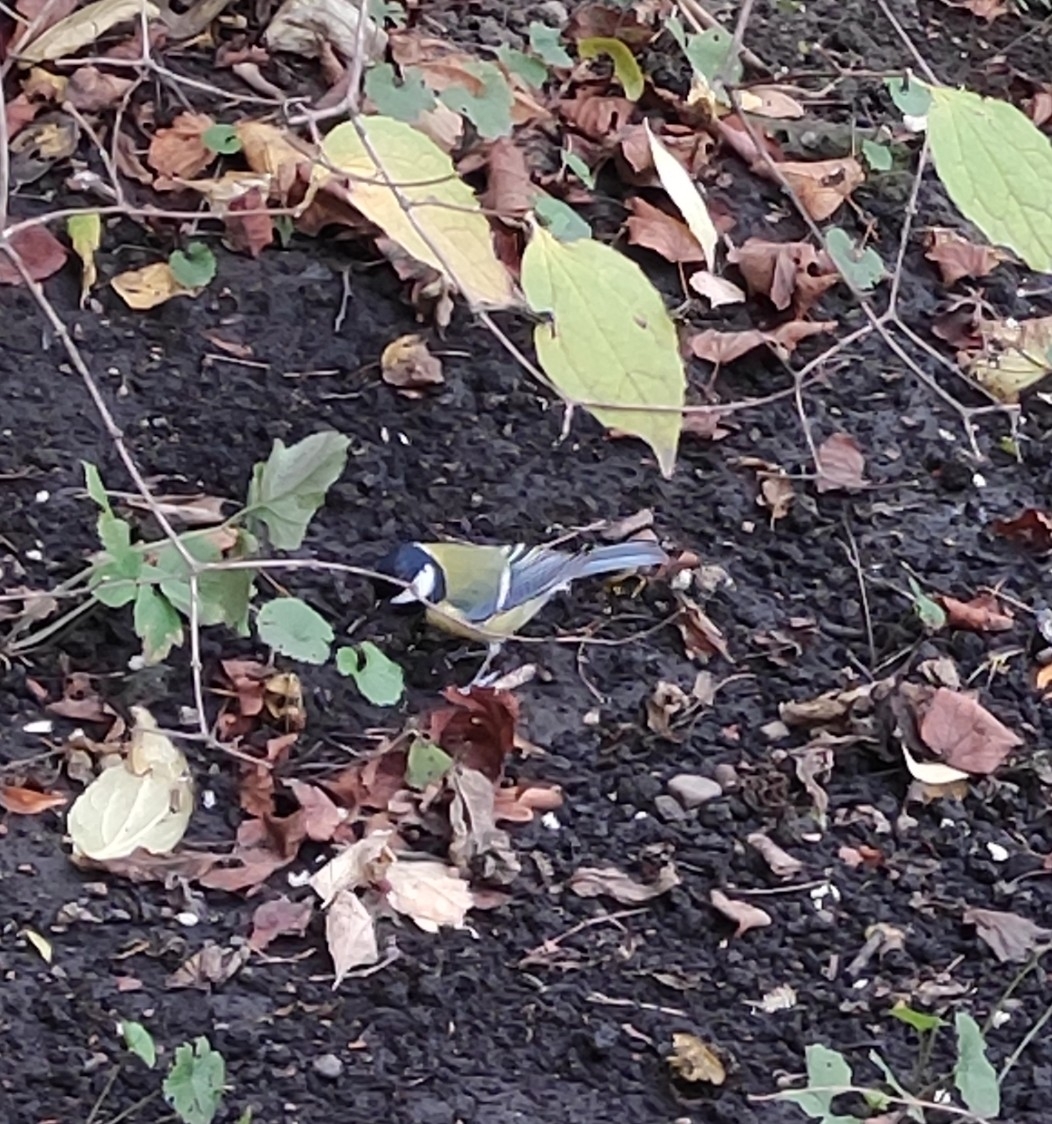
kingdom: Animalia
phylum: Chordata
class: Aves
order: Passeriformes
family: Paridae
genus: Parus
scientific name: Parus major
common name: Great tit
